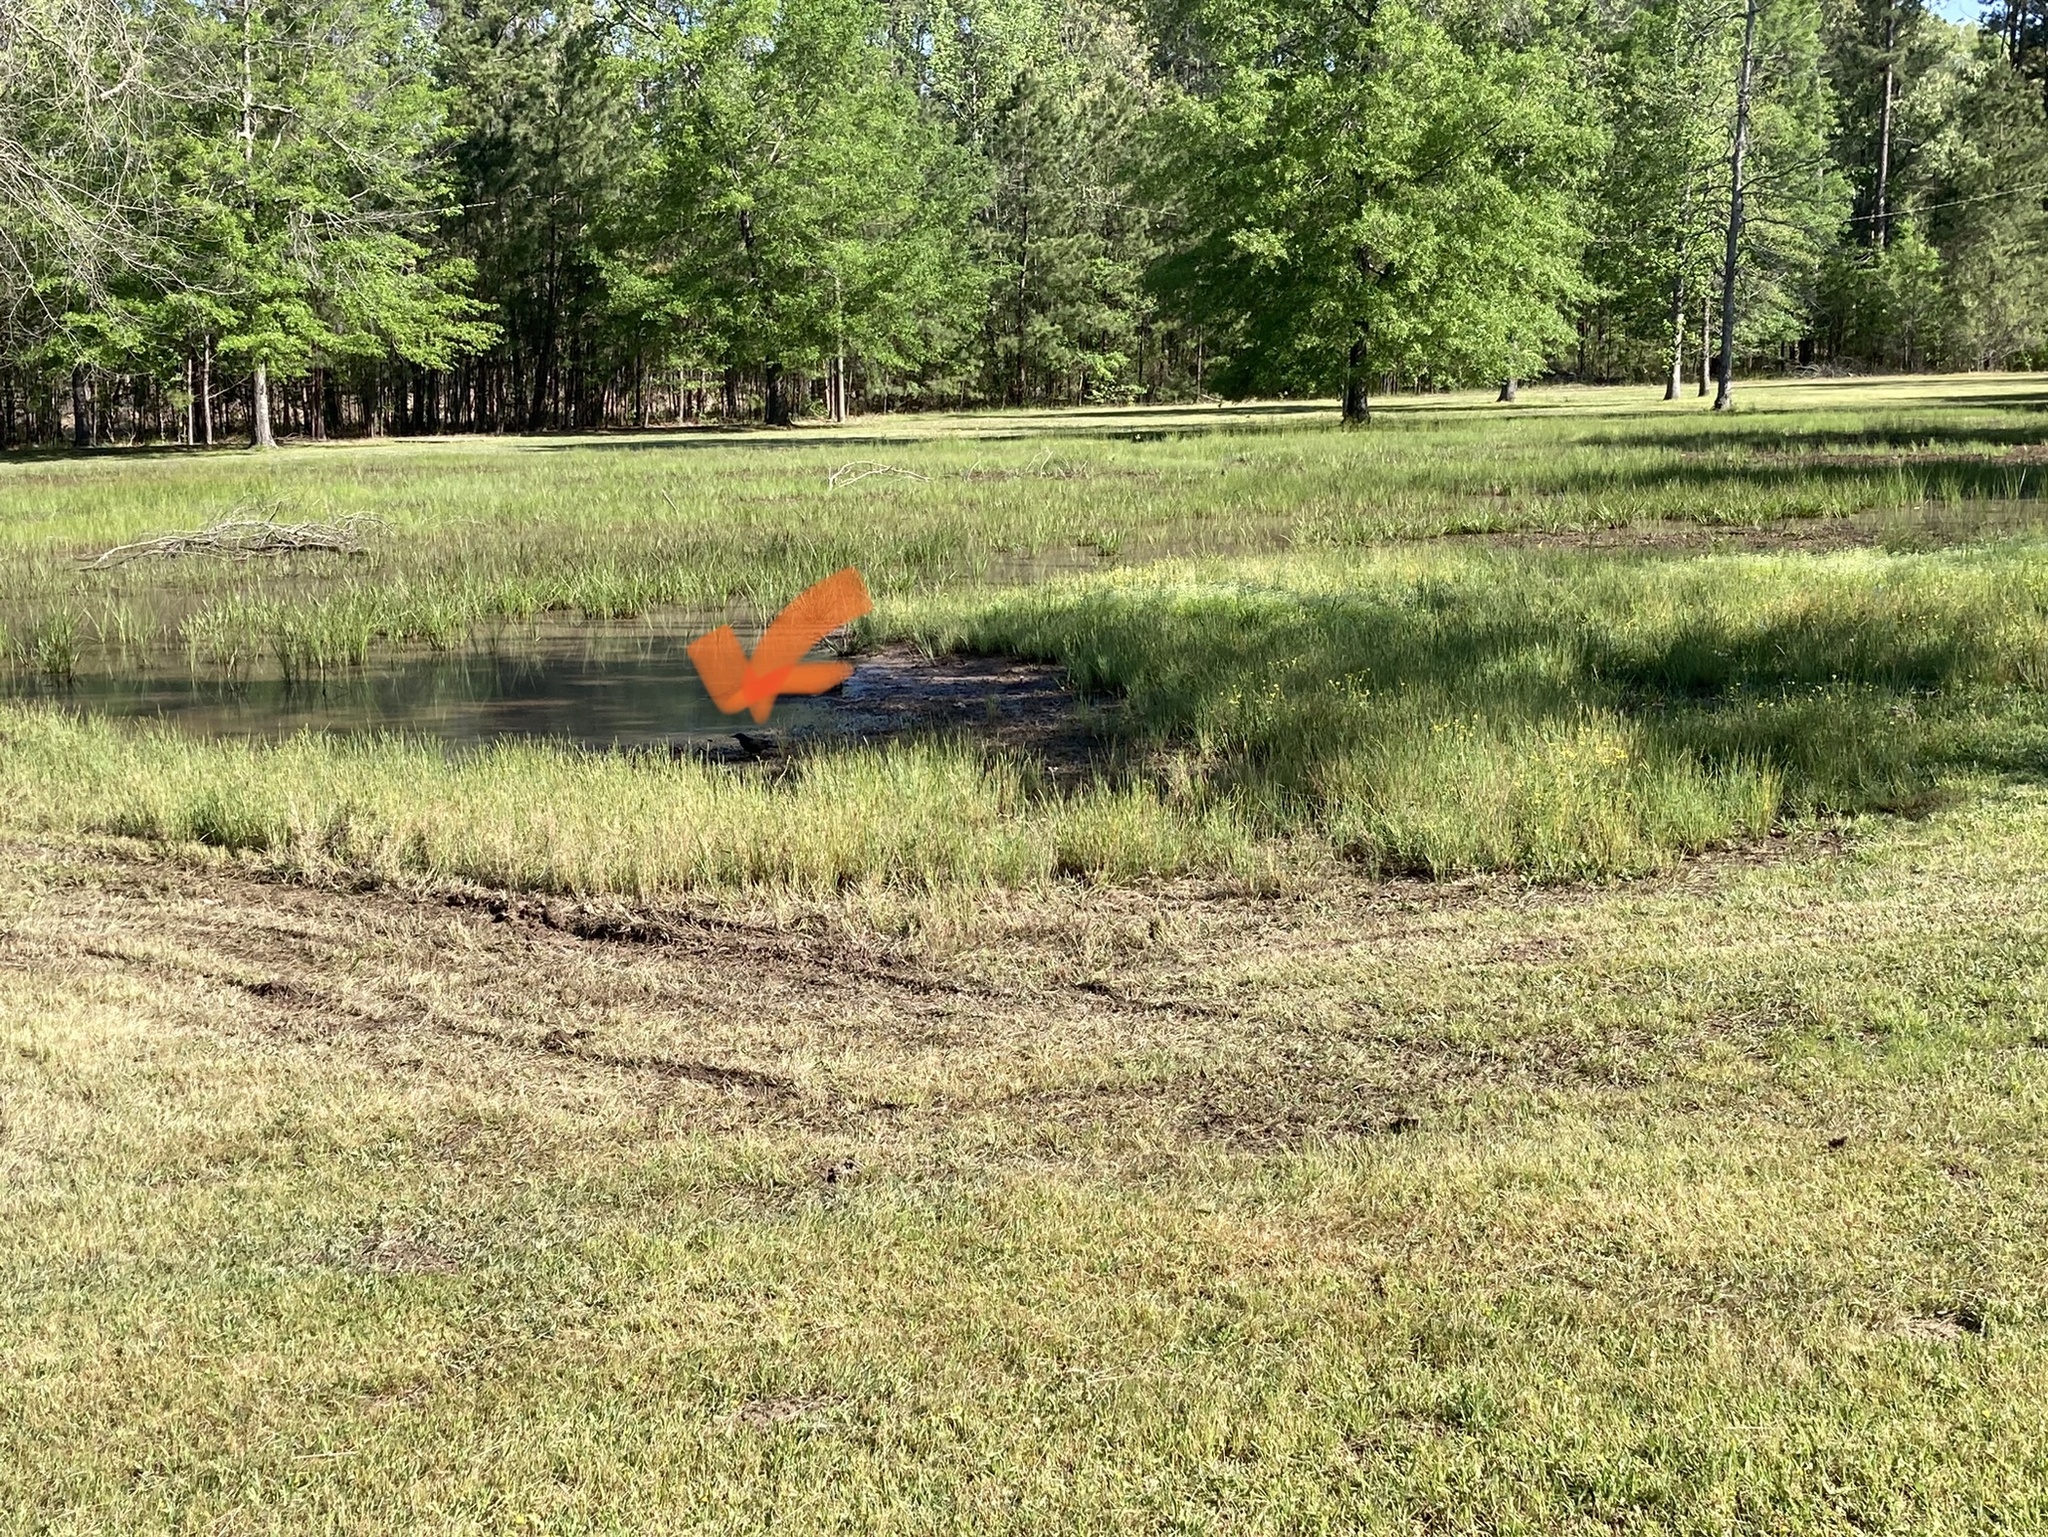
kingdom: Animalia
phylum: Chordata
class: Aves
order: Passeriformes
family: Icteridae
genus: Agelaius
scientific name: Agelaius phoeniceus
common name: Red-winged blackbird
